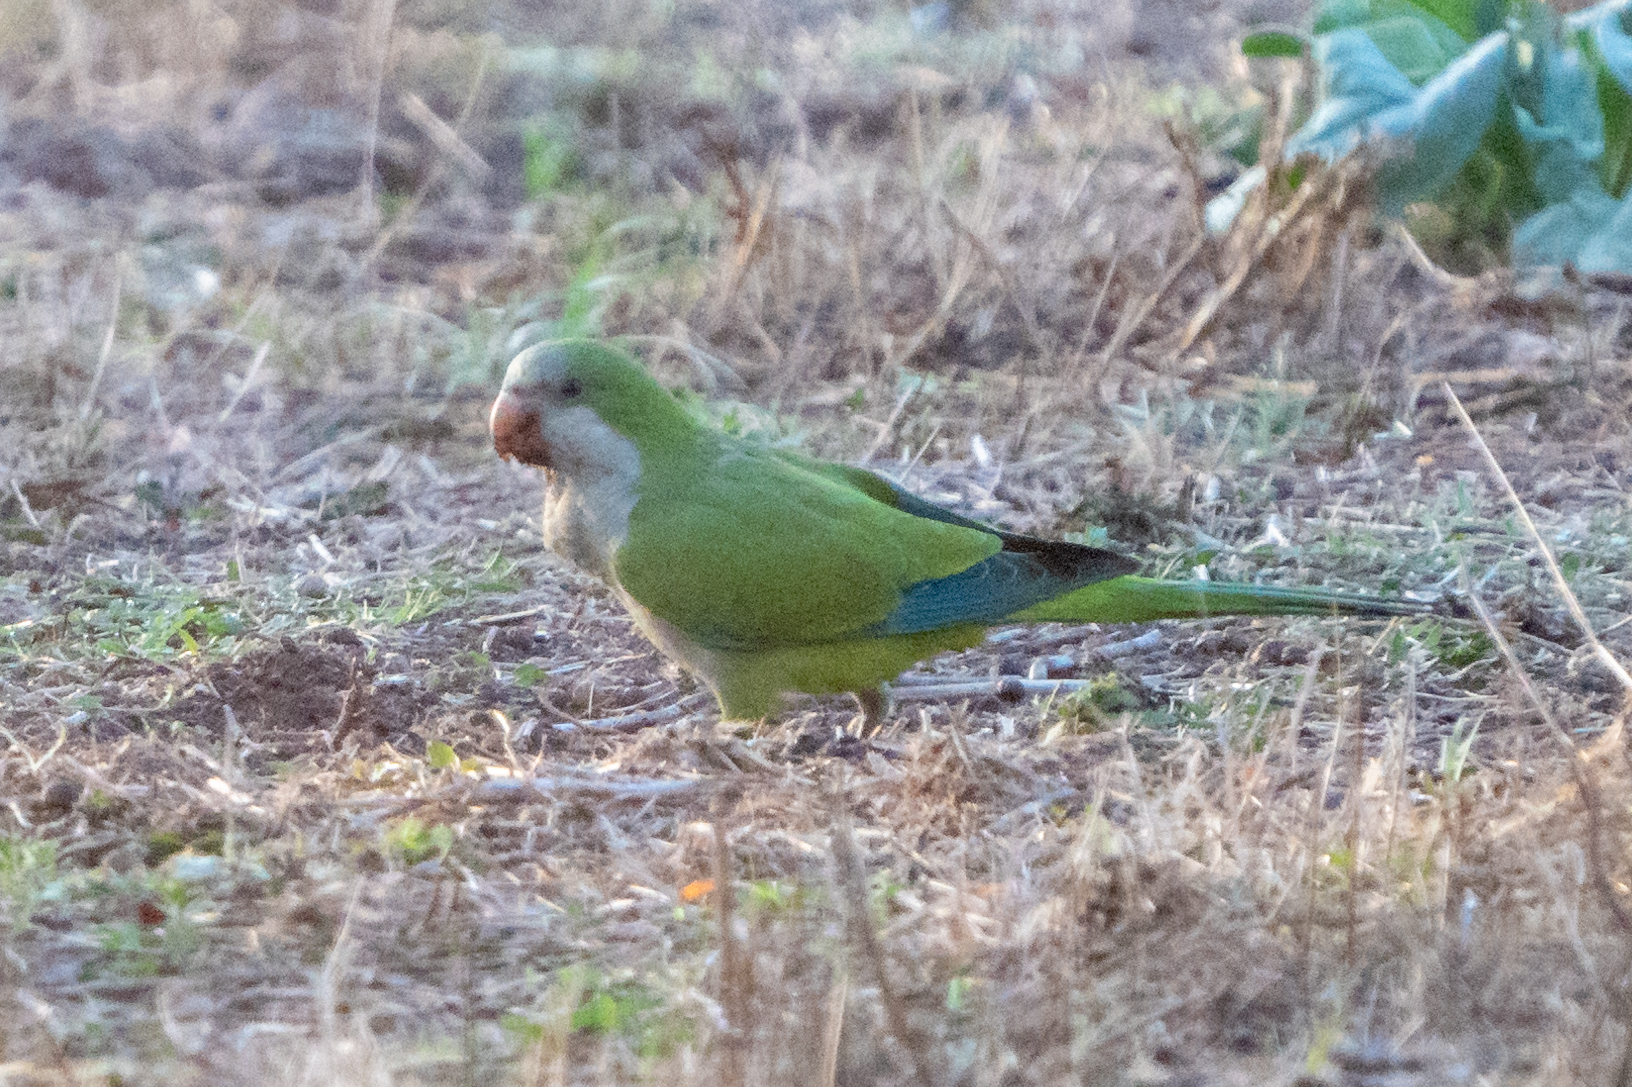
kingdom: Animalia
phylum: Chordata
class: Aves
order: Psittaciformes
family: Psittacidae
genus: Myiopsitta
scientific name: Myiopsitta monachus
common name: Monk parakeet
